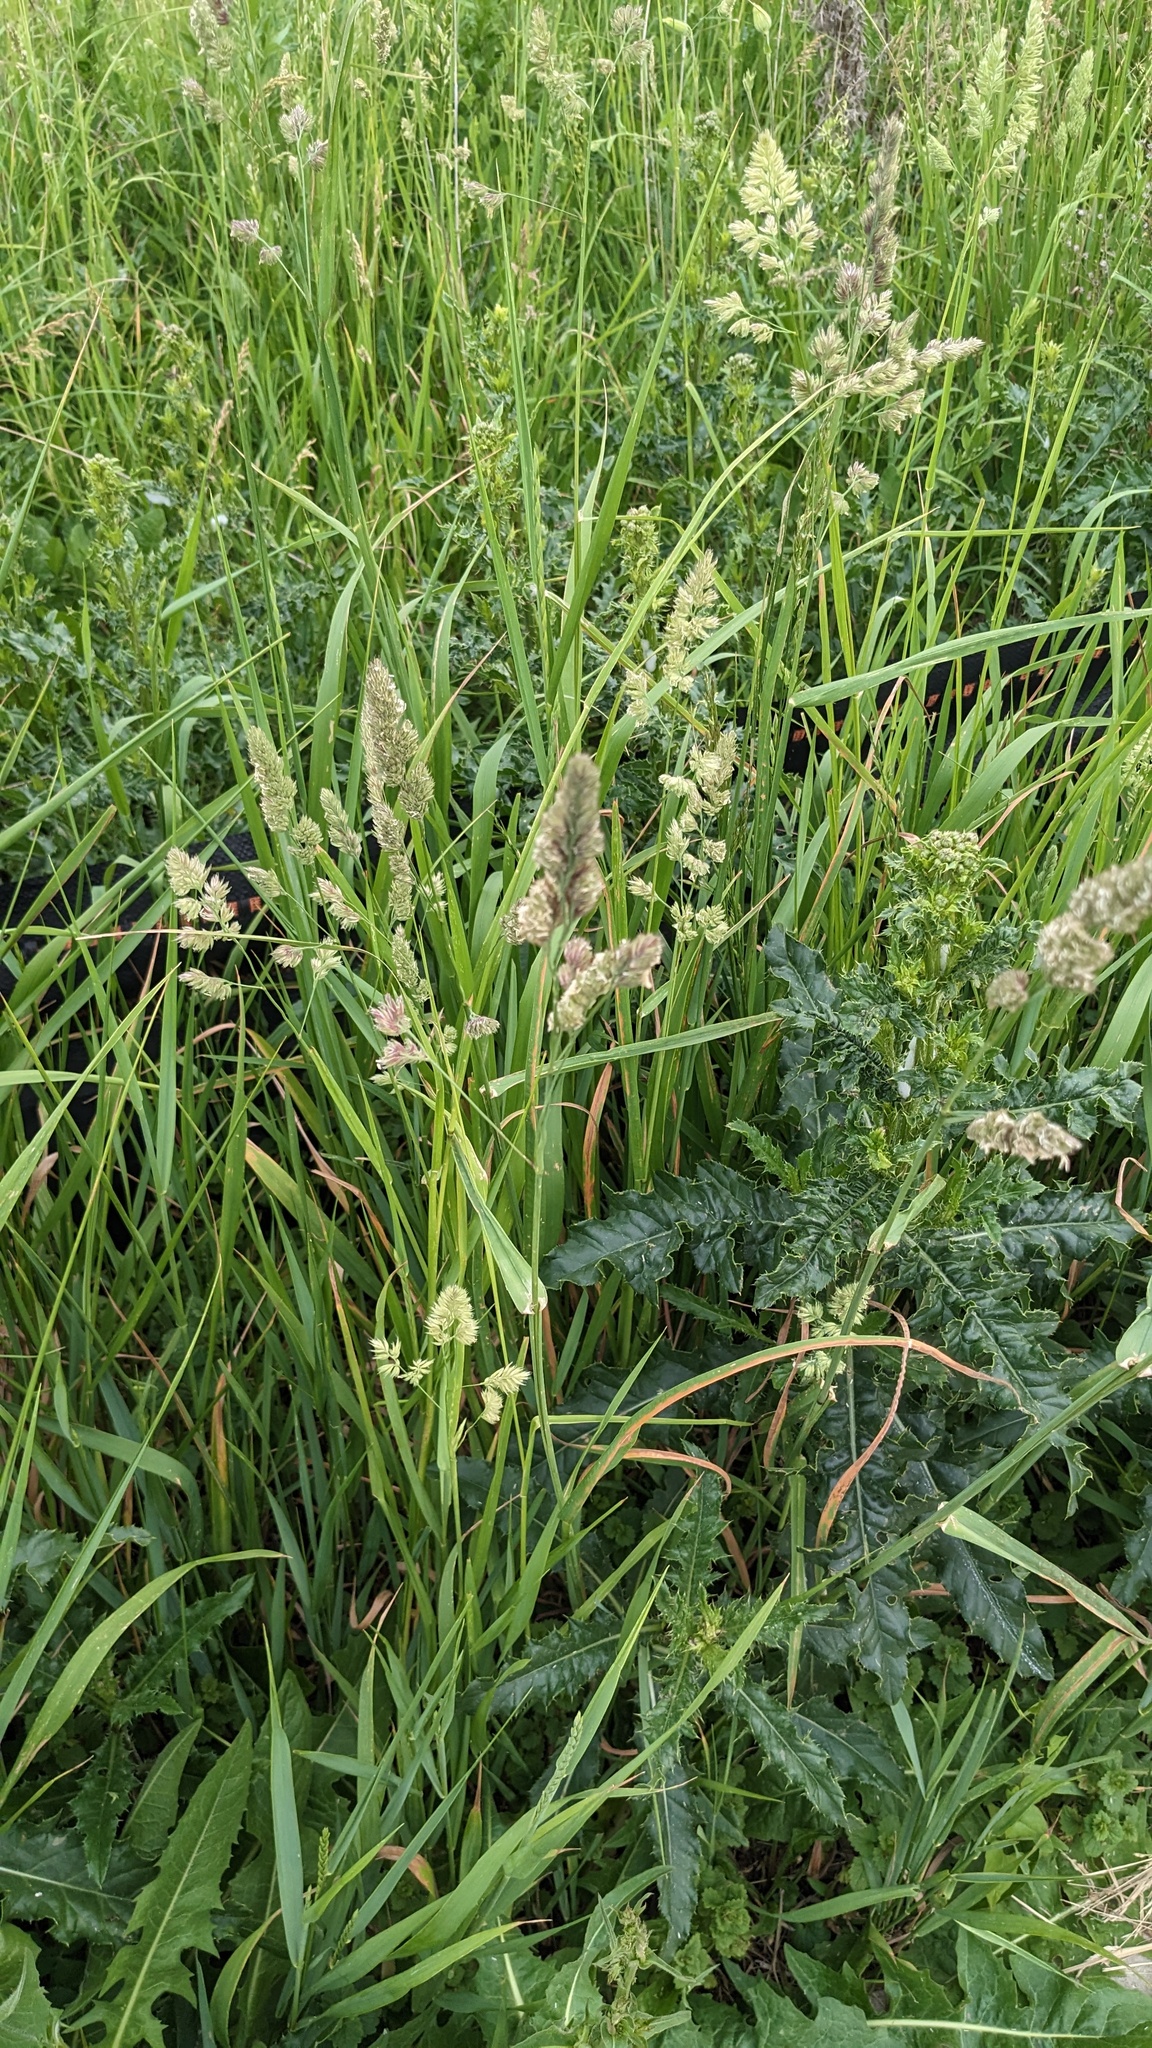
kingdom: Plantae
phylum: Tracheophyta
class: Liliopsida
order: Poales
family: Poaceae
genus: Dactylis
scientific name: Dactylis glomerata
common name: Orchardgrass
